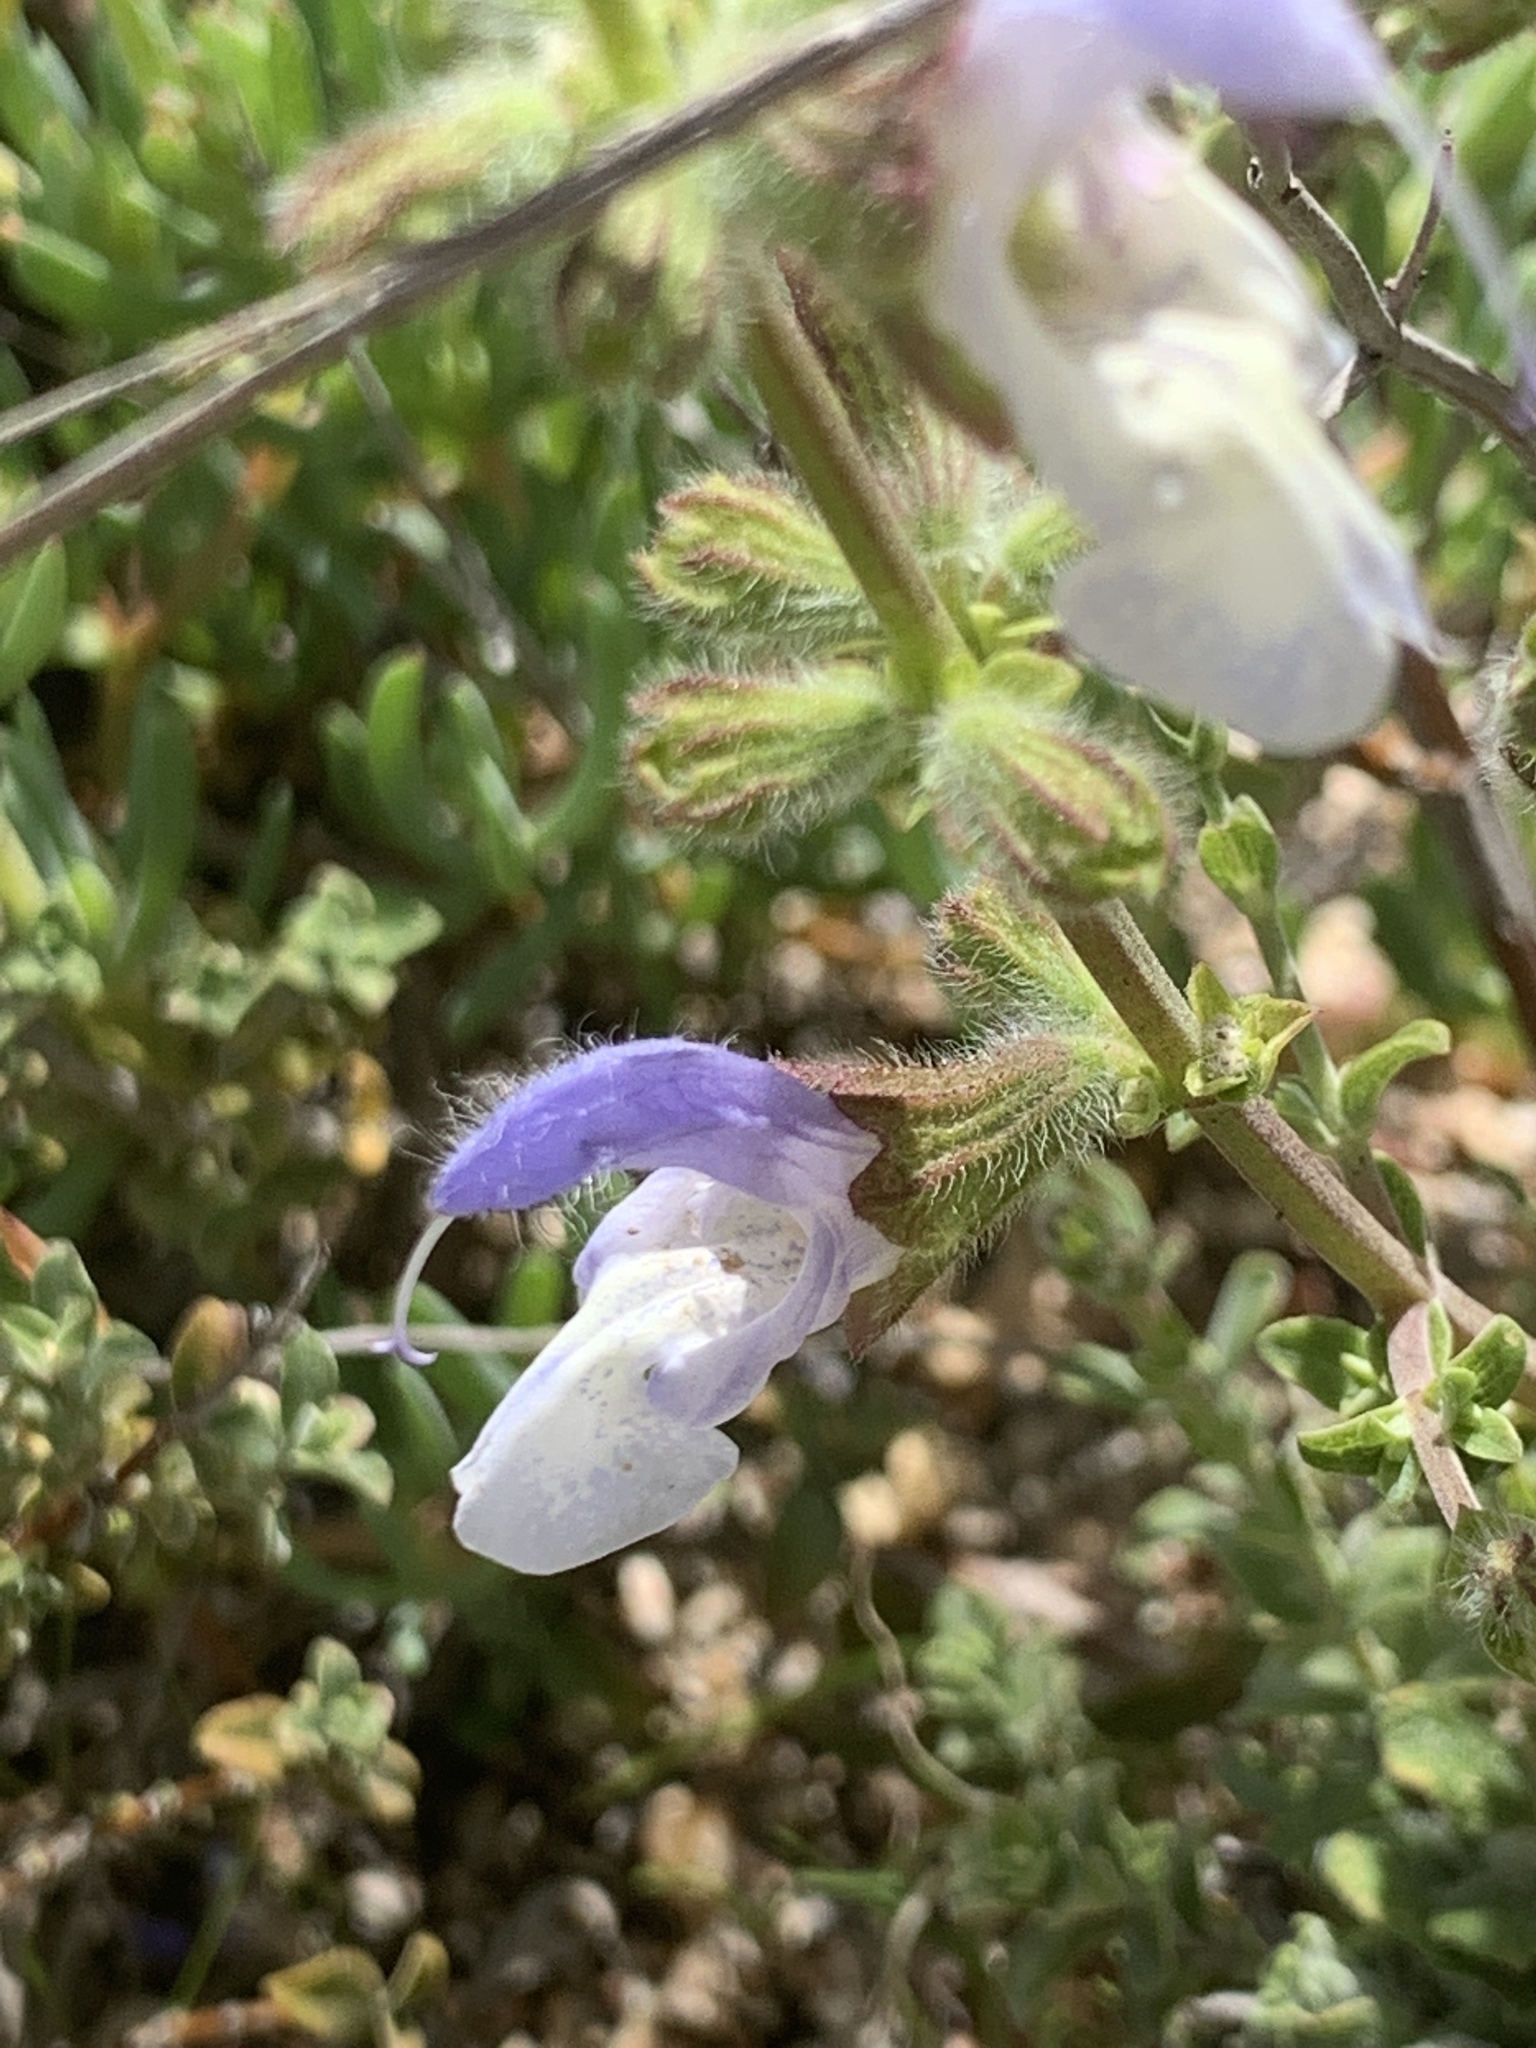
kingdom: Plantae
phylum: Tracheophyta
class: Magnoliopsida
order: Lamiales
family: Lamiaceae
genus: Salvia
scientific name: Salvia africana
